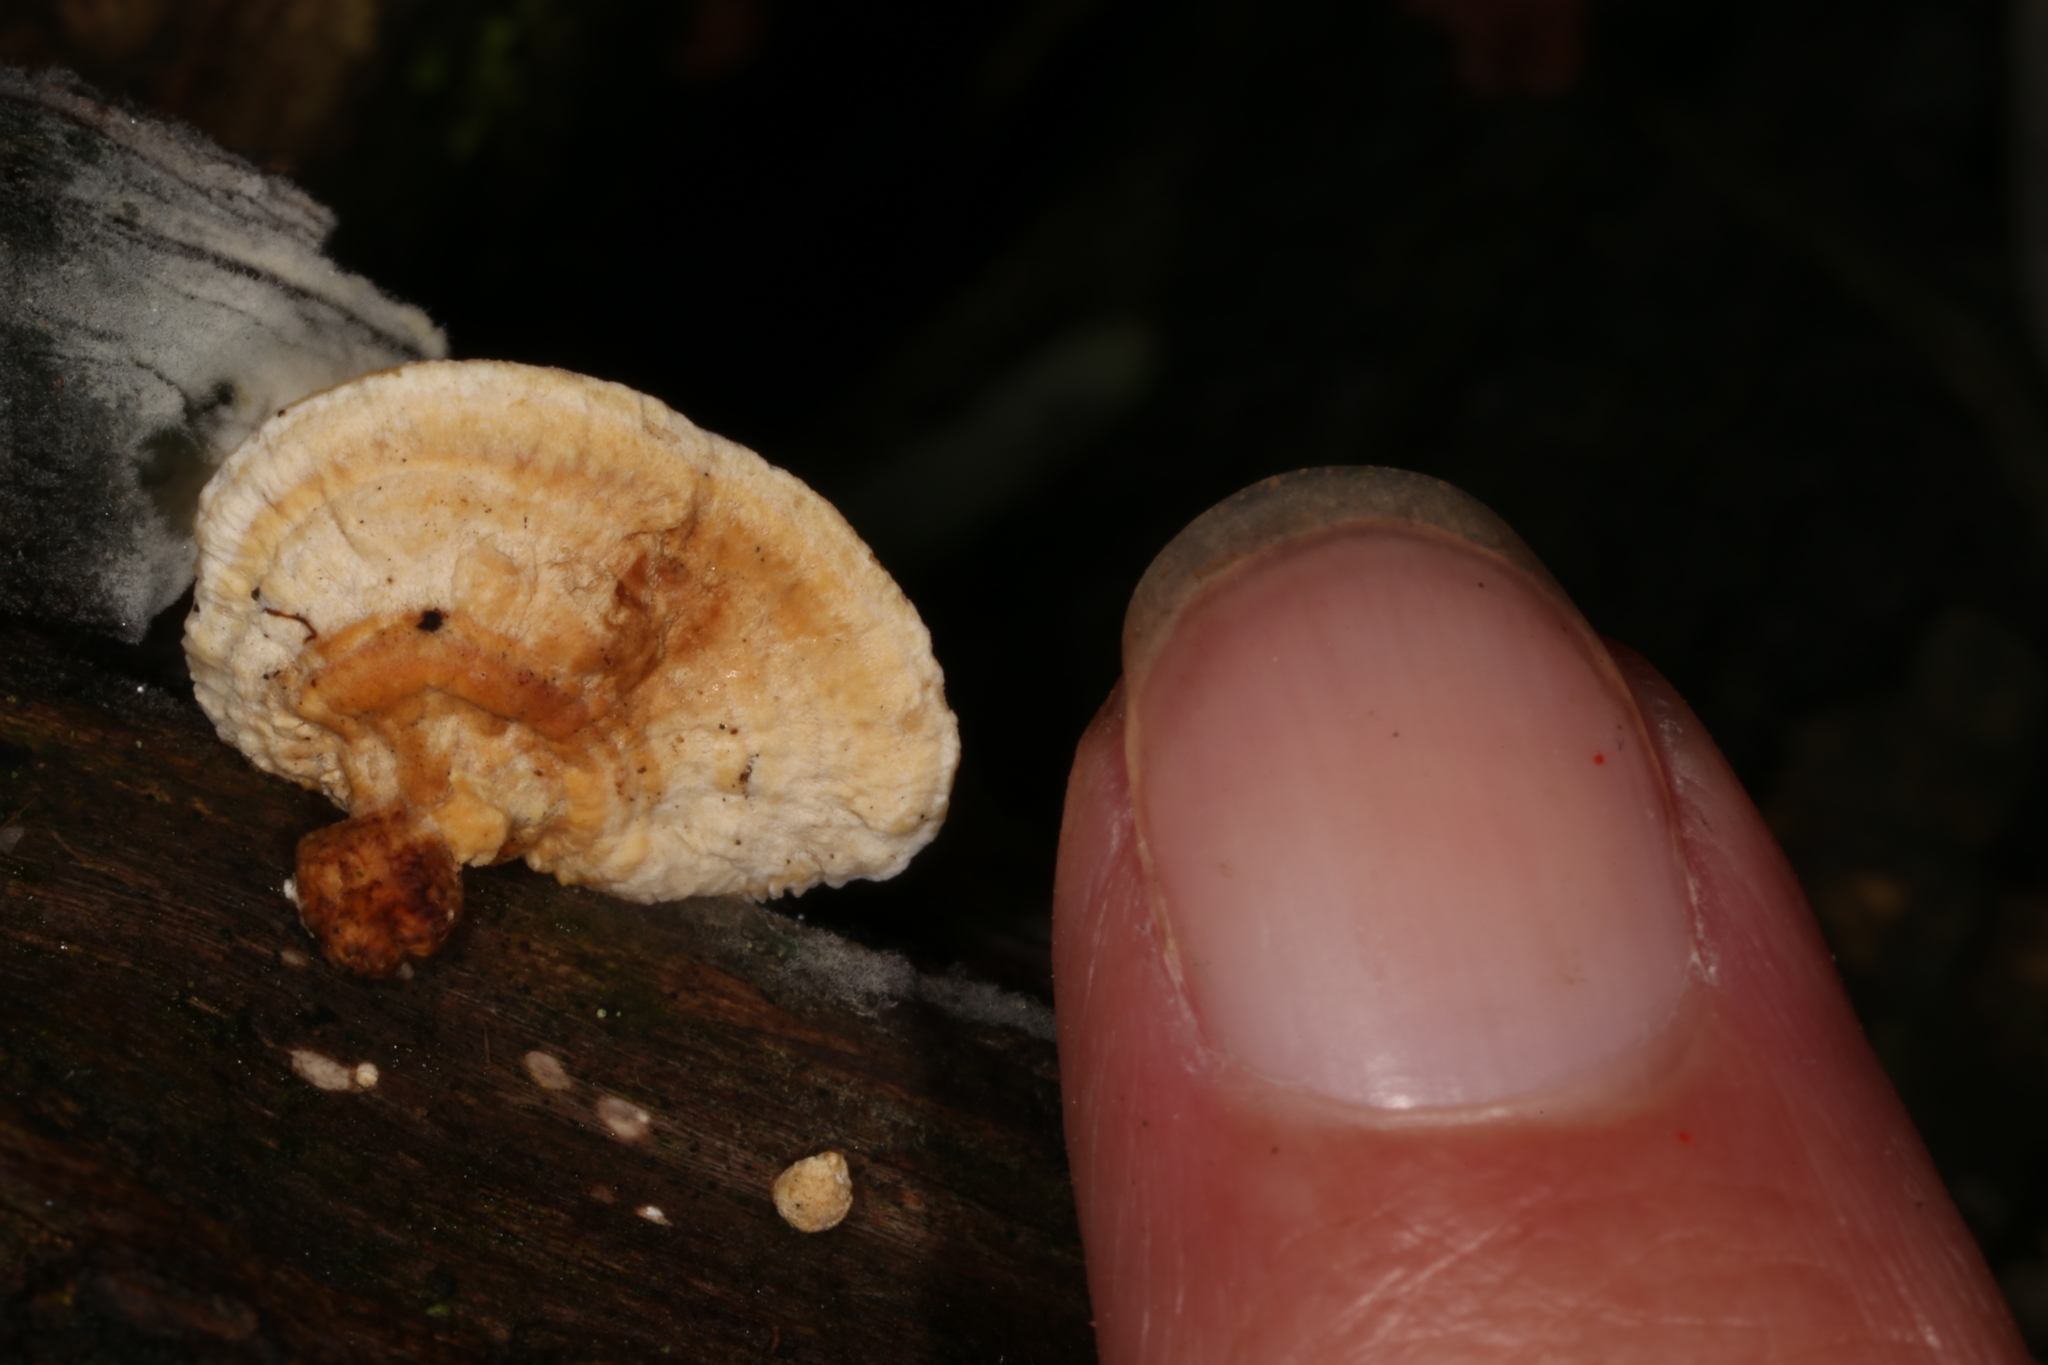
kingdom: Fungi
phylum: Basidiomycota
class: Agaricomycetes
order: Polyporales
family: Polyporaceae
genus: Truncospora
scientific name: Truncospora floridana
